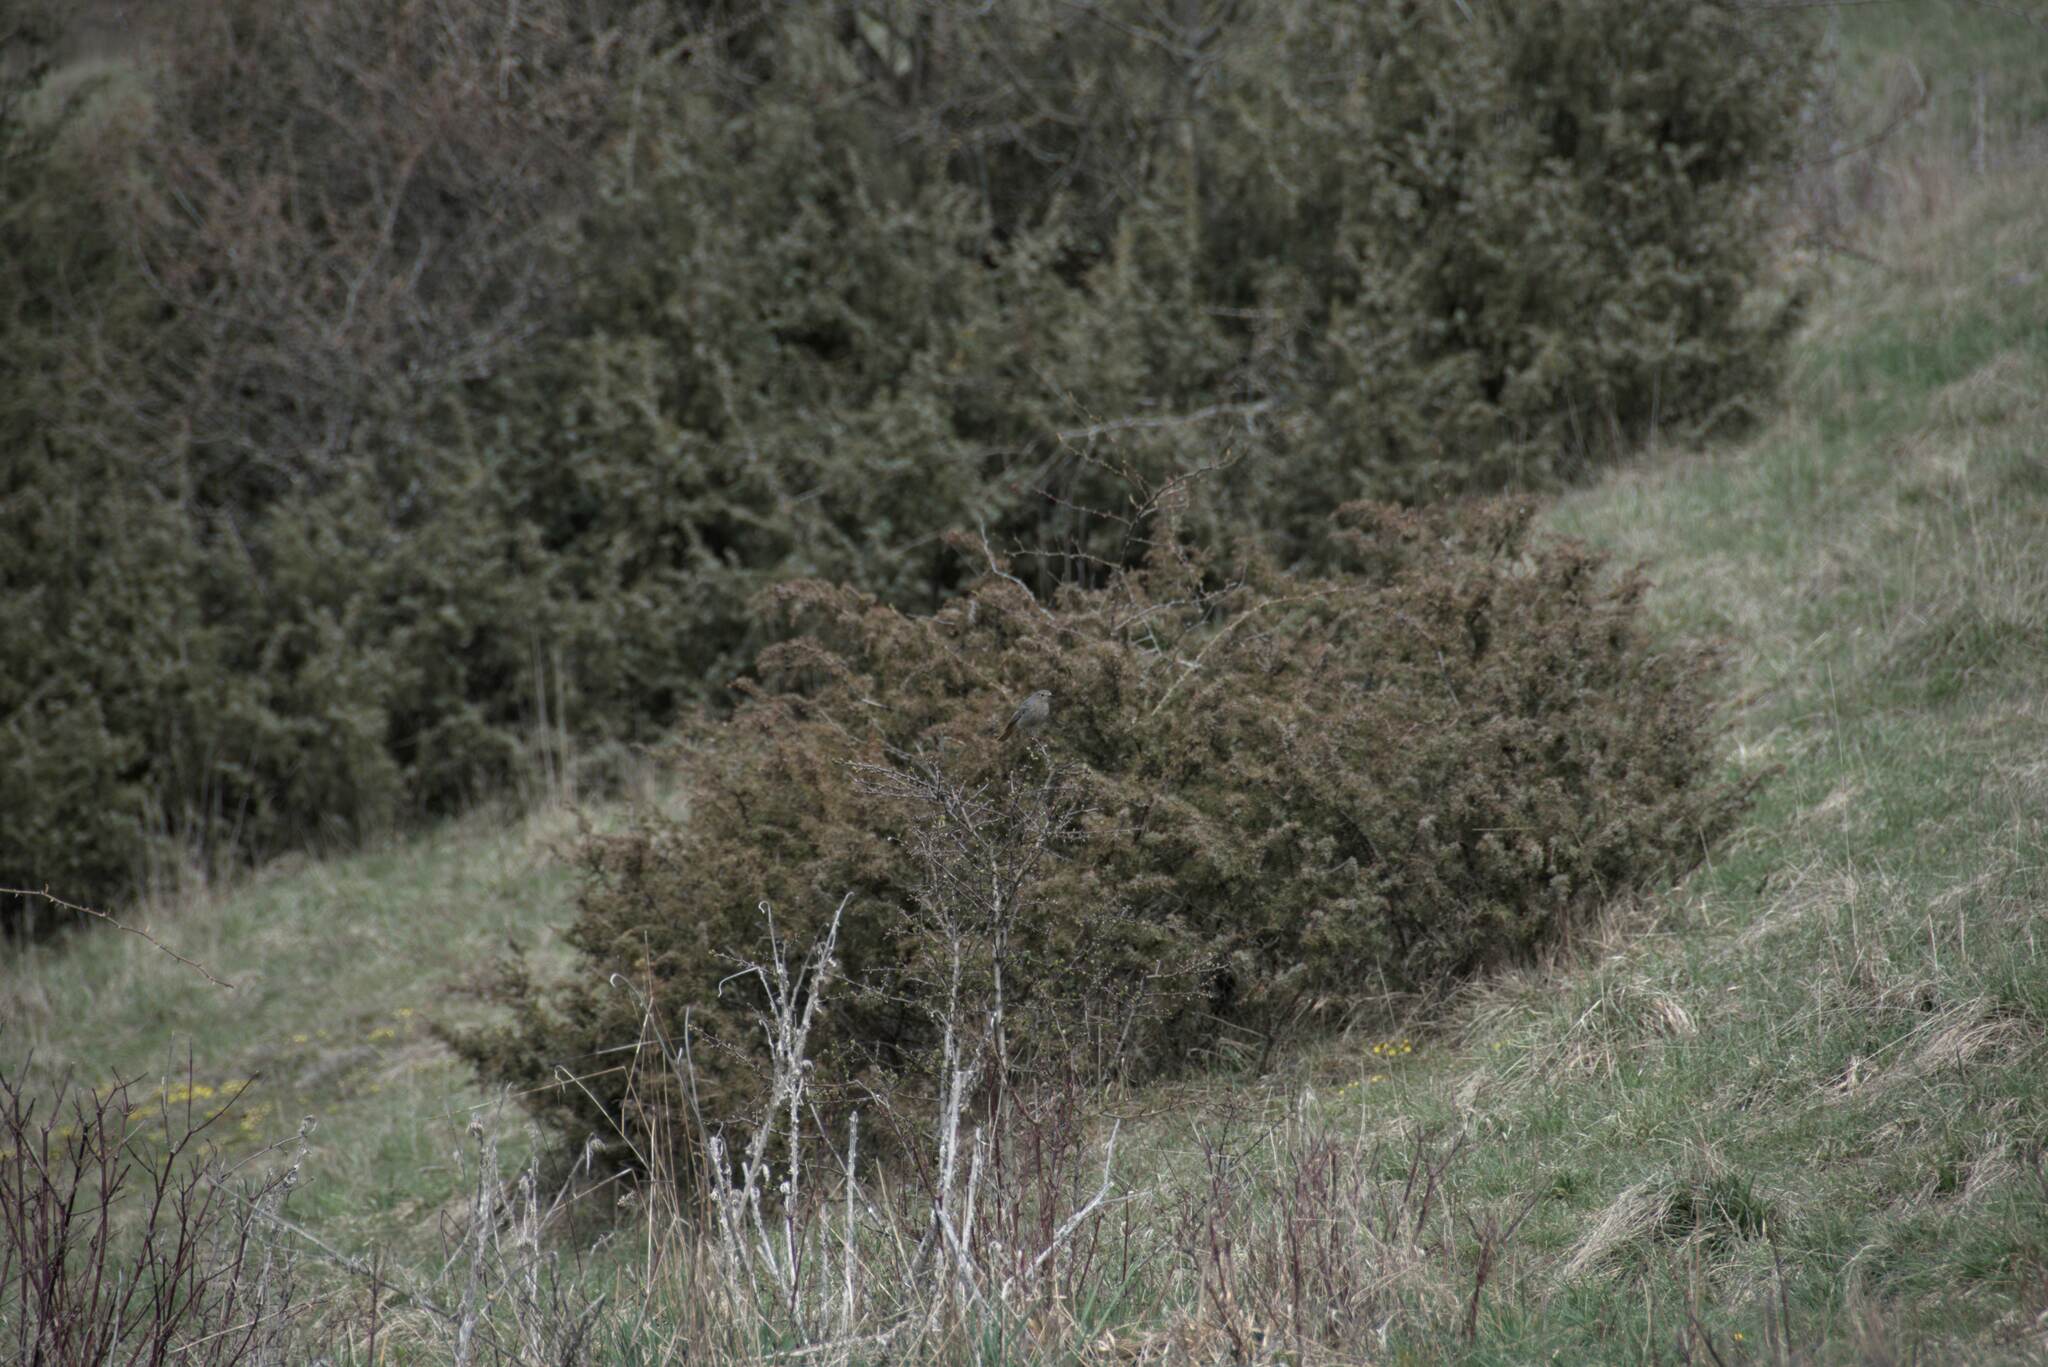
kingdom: Animalia
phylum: Chordata
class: Aves
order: Passeriformes
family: Muscicapidae
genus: Phoenicurus
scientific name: Phoenicurus ochruros
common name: Black redstart
